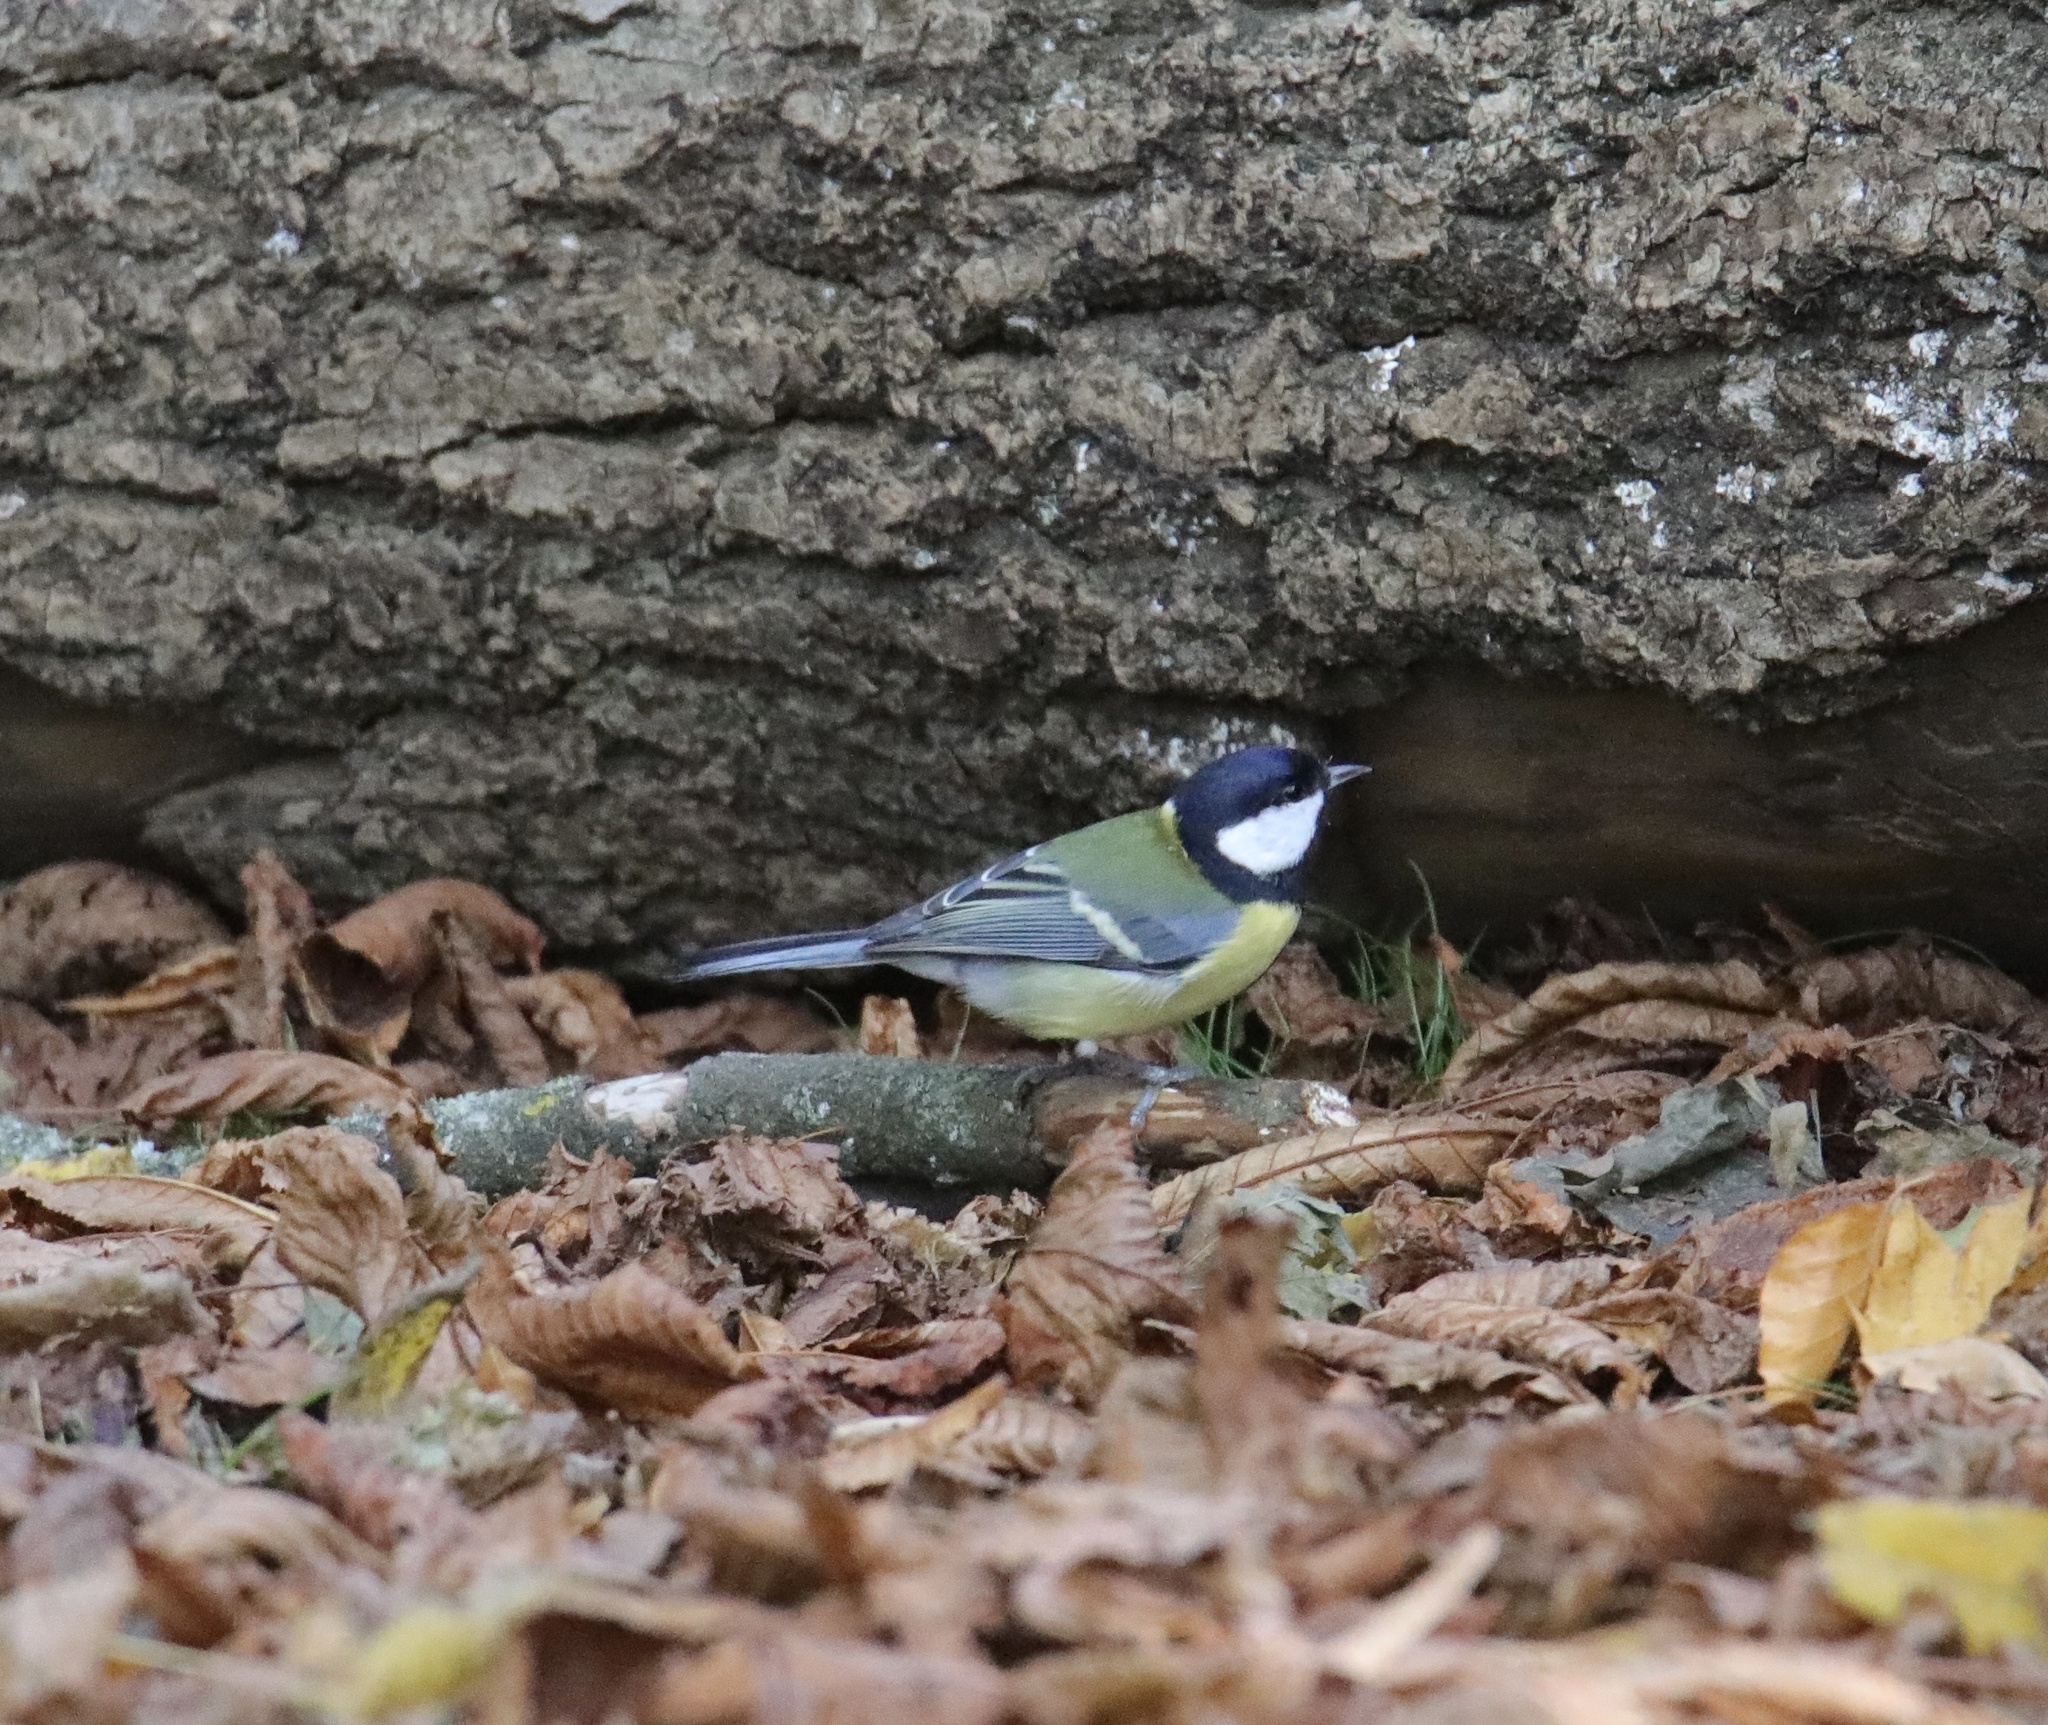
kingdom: Animalia
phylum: Chordata
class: Aves
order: Passeriformes
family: Paridae
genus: Parus
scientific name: Parus major
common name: Great tit
